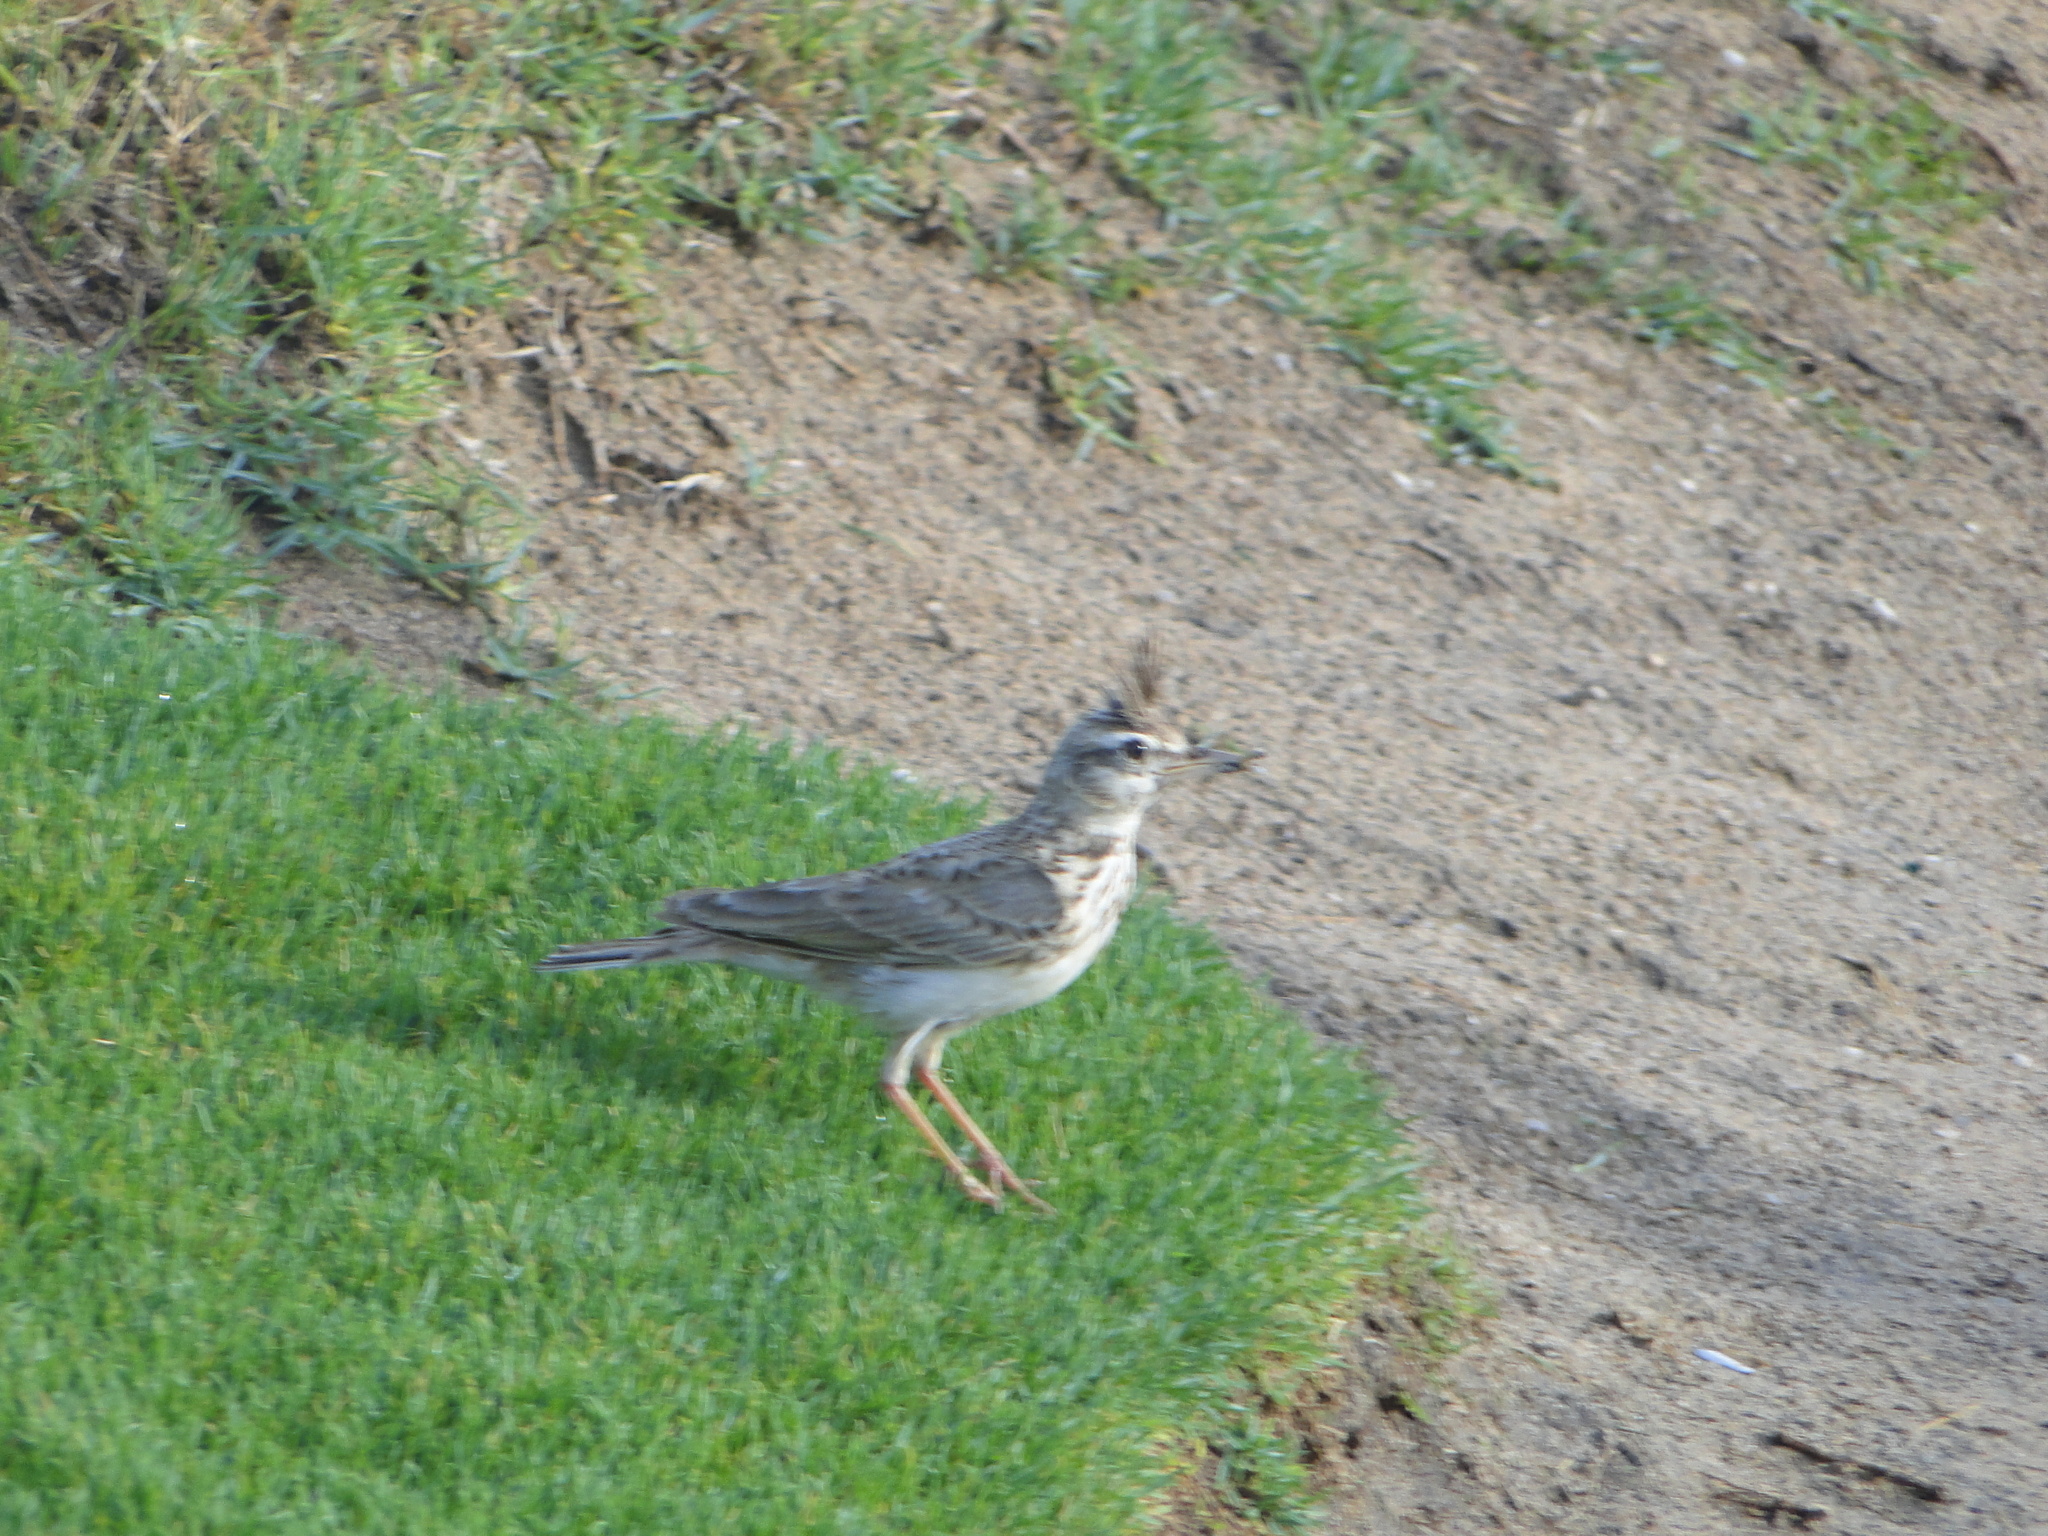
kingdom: Animalia
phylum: Chordata
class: Aves
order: Passeriformes
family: Alaudidae
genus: Galerida
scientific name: Galerida cristata
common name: Crested lark
